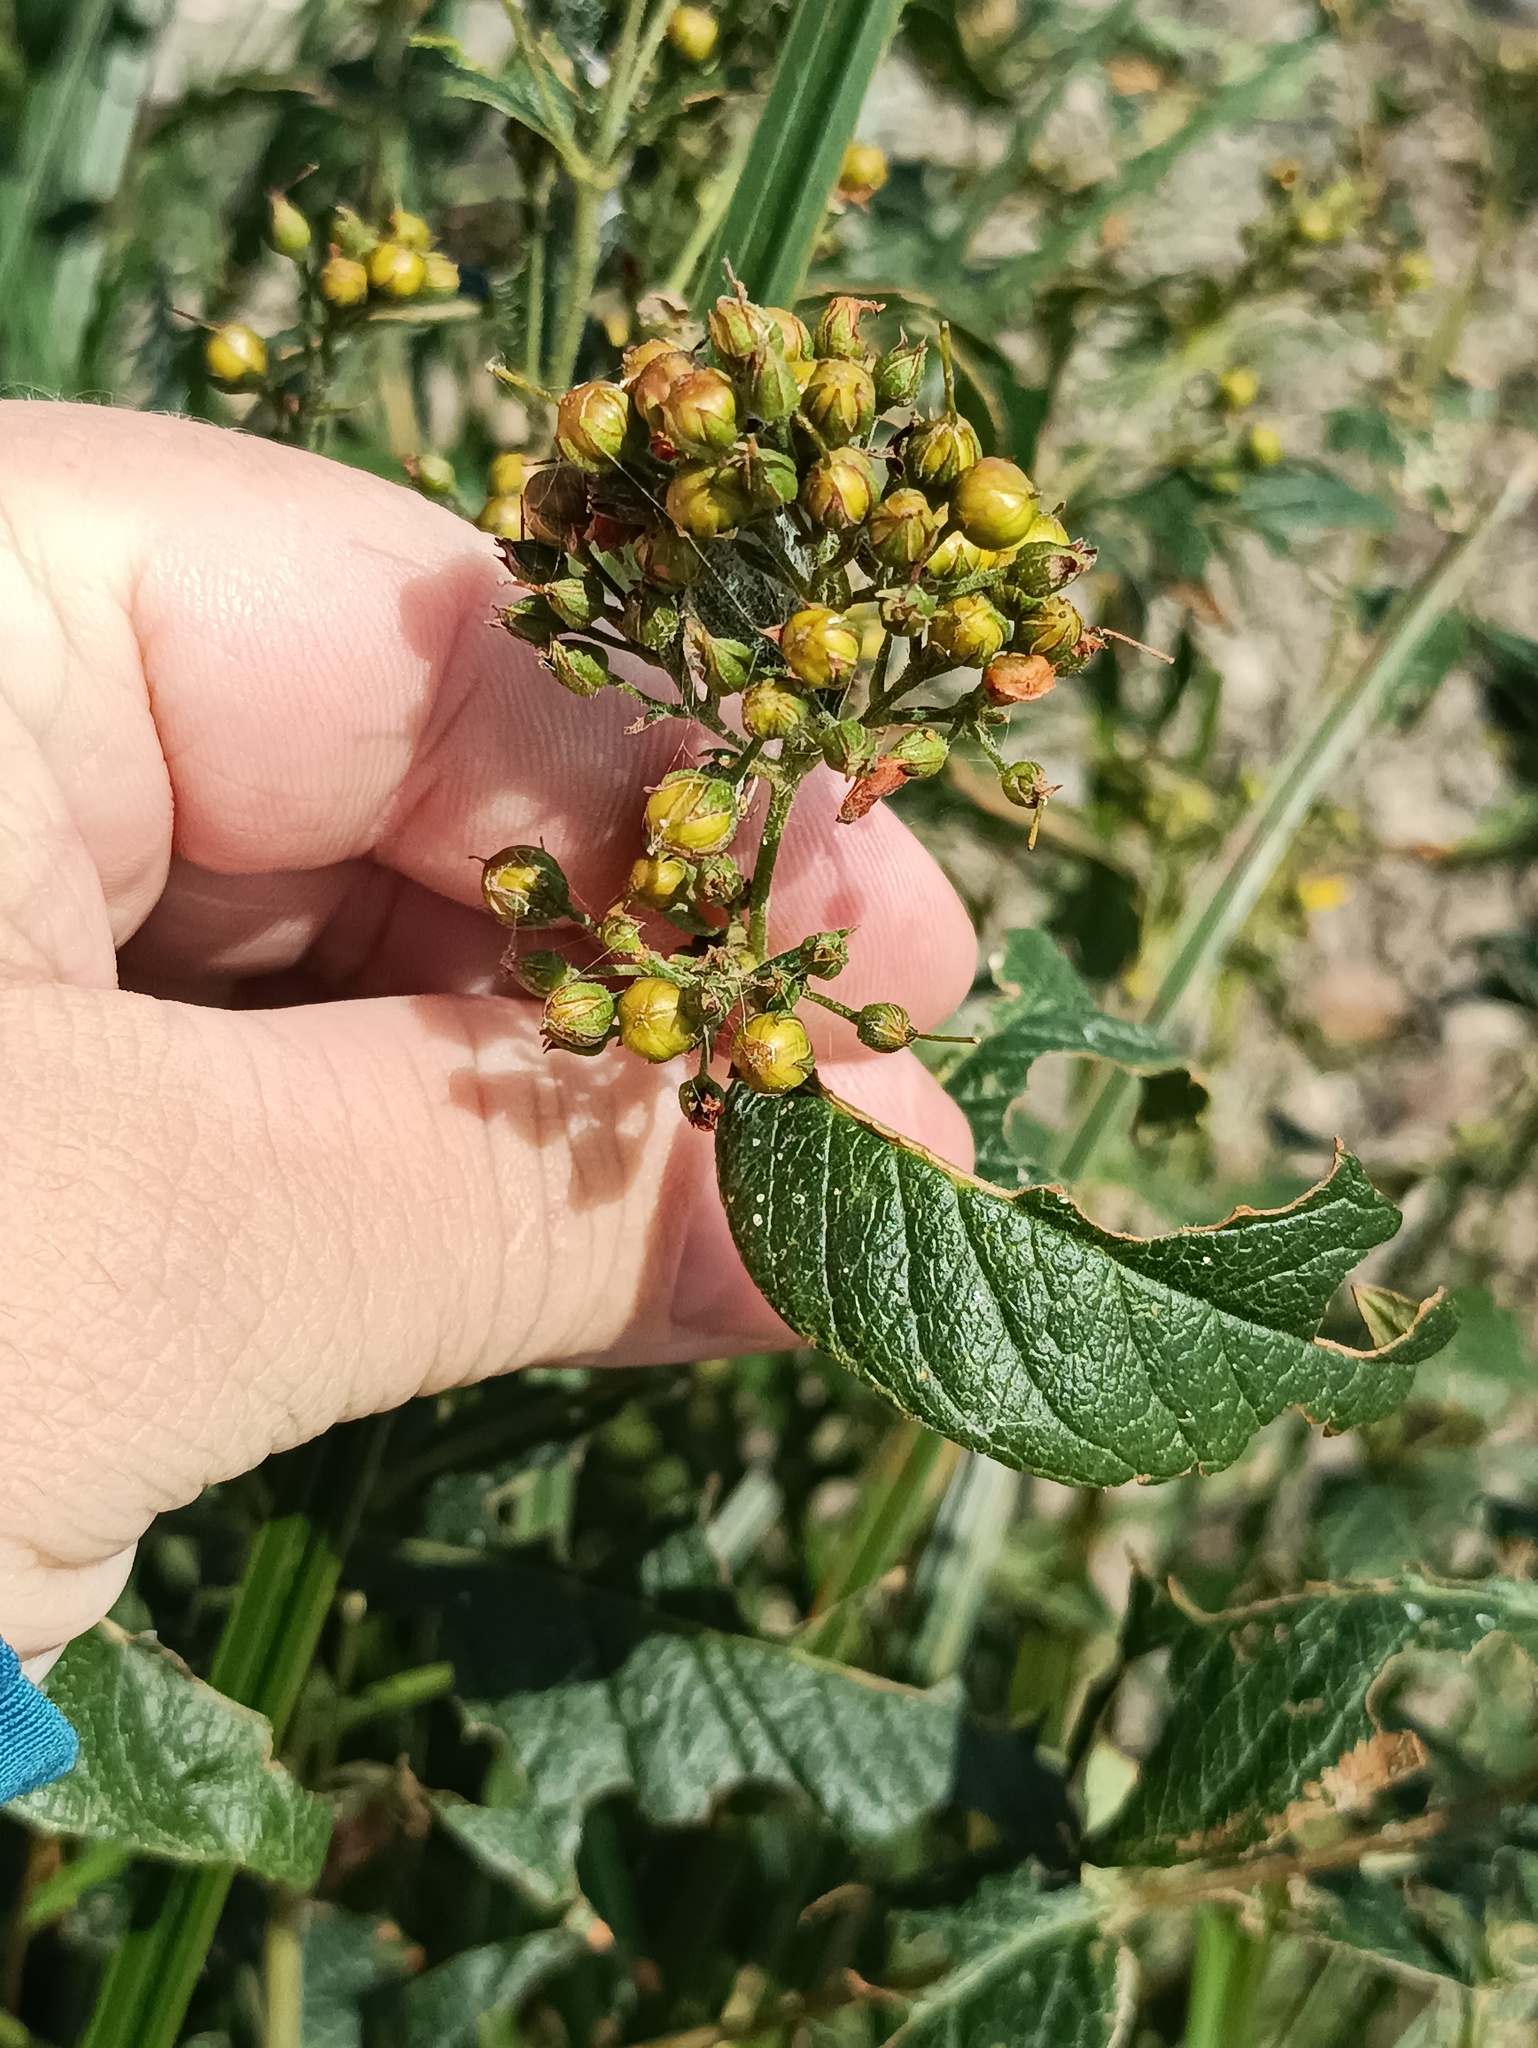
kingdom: Plantae
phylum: Tracheophyta
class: Magnoliopsida
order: Ericales
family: Primulaceae
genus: Lysimachia
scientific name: Lysimachia vulgaris
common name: Yellow loosestrife
